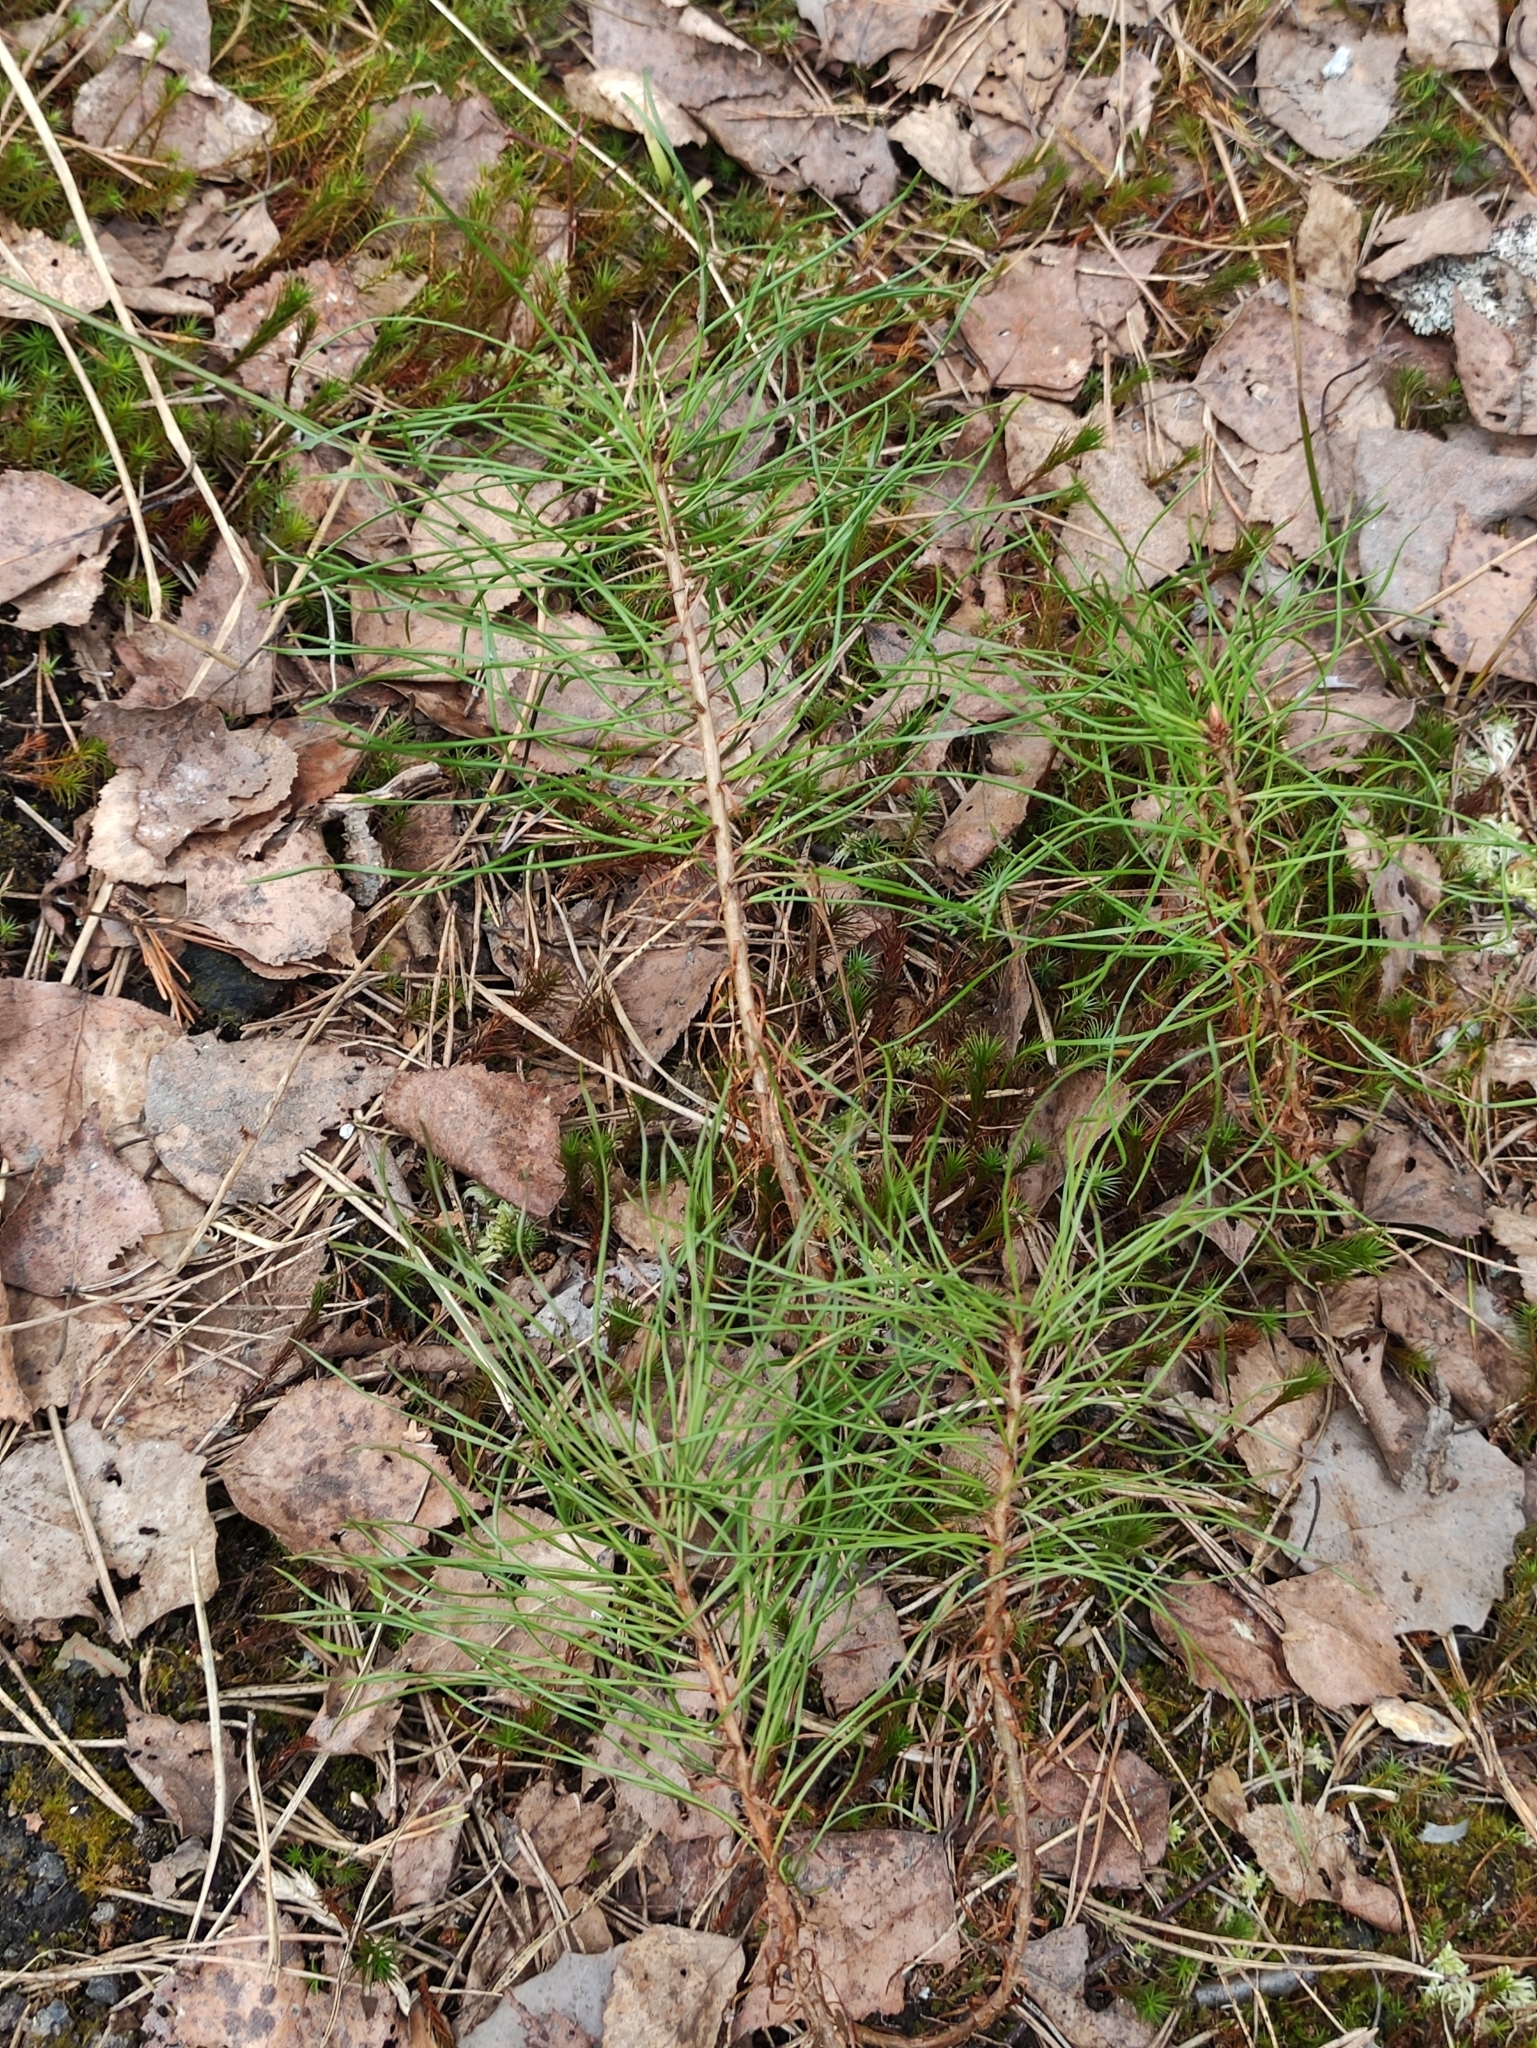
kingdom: Plantae
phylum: Tracheophyta
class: Pinopsida
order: Pinales
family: Pinaceae
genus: Pinus
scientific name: Pinus sylvestris
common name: Scots pine
